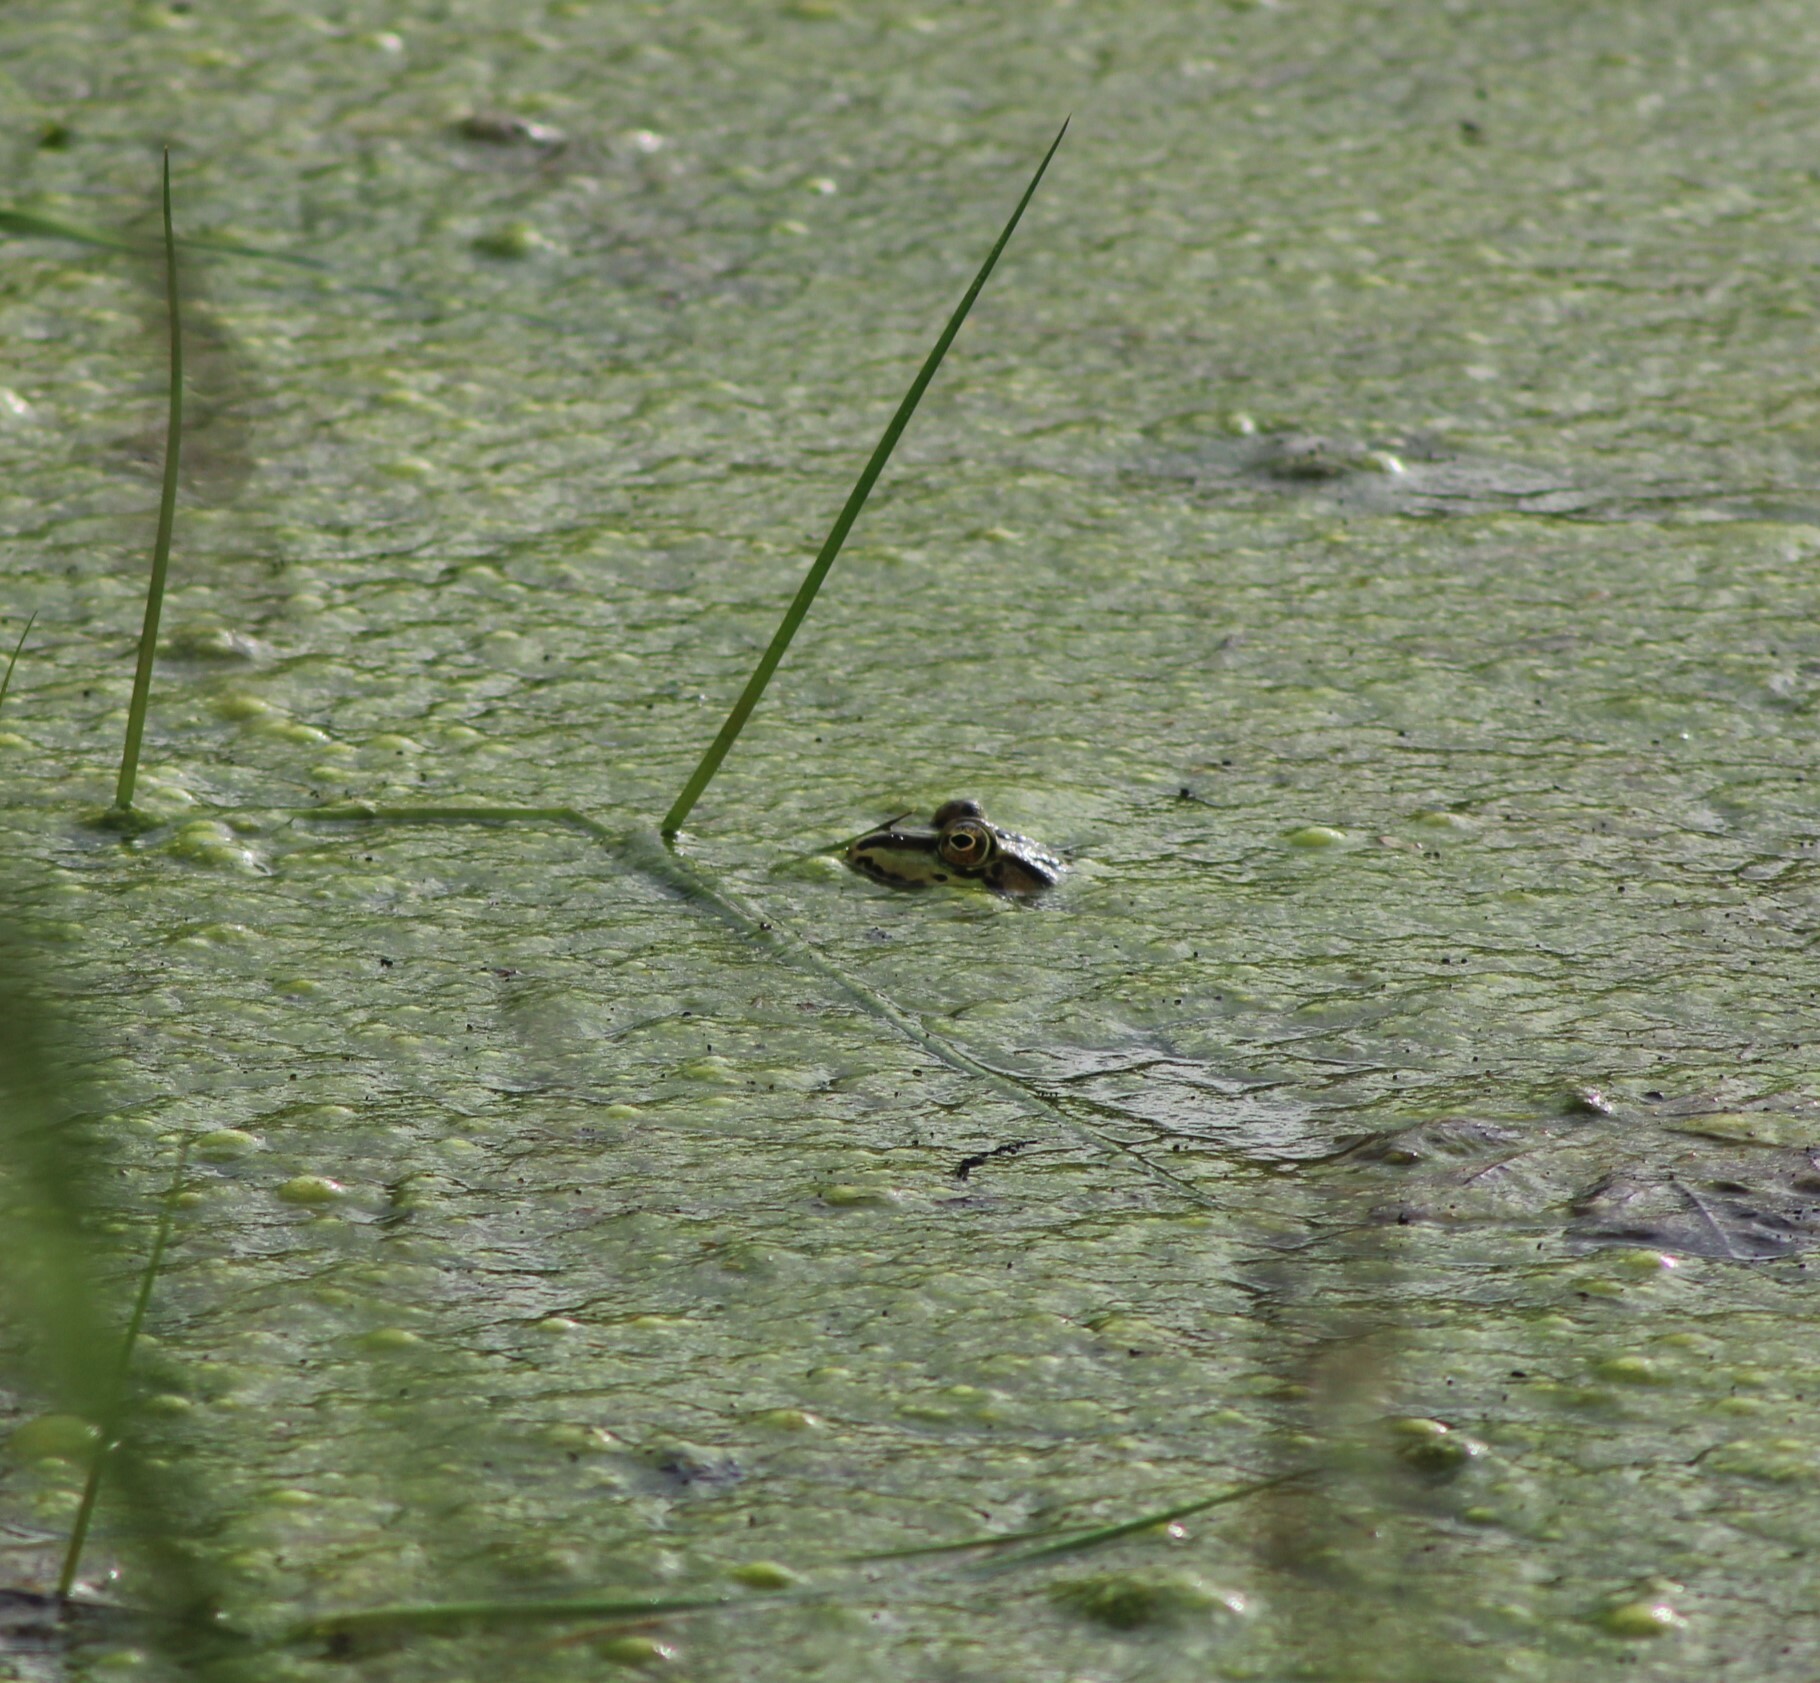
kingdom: Animalia
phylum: Chordata
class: Amphibia
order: Anura
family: Ranidae
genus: Pelophylax
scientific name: Pelophylax
